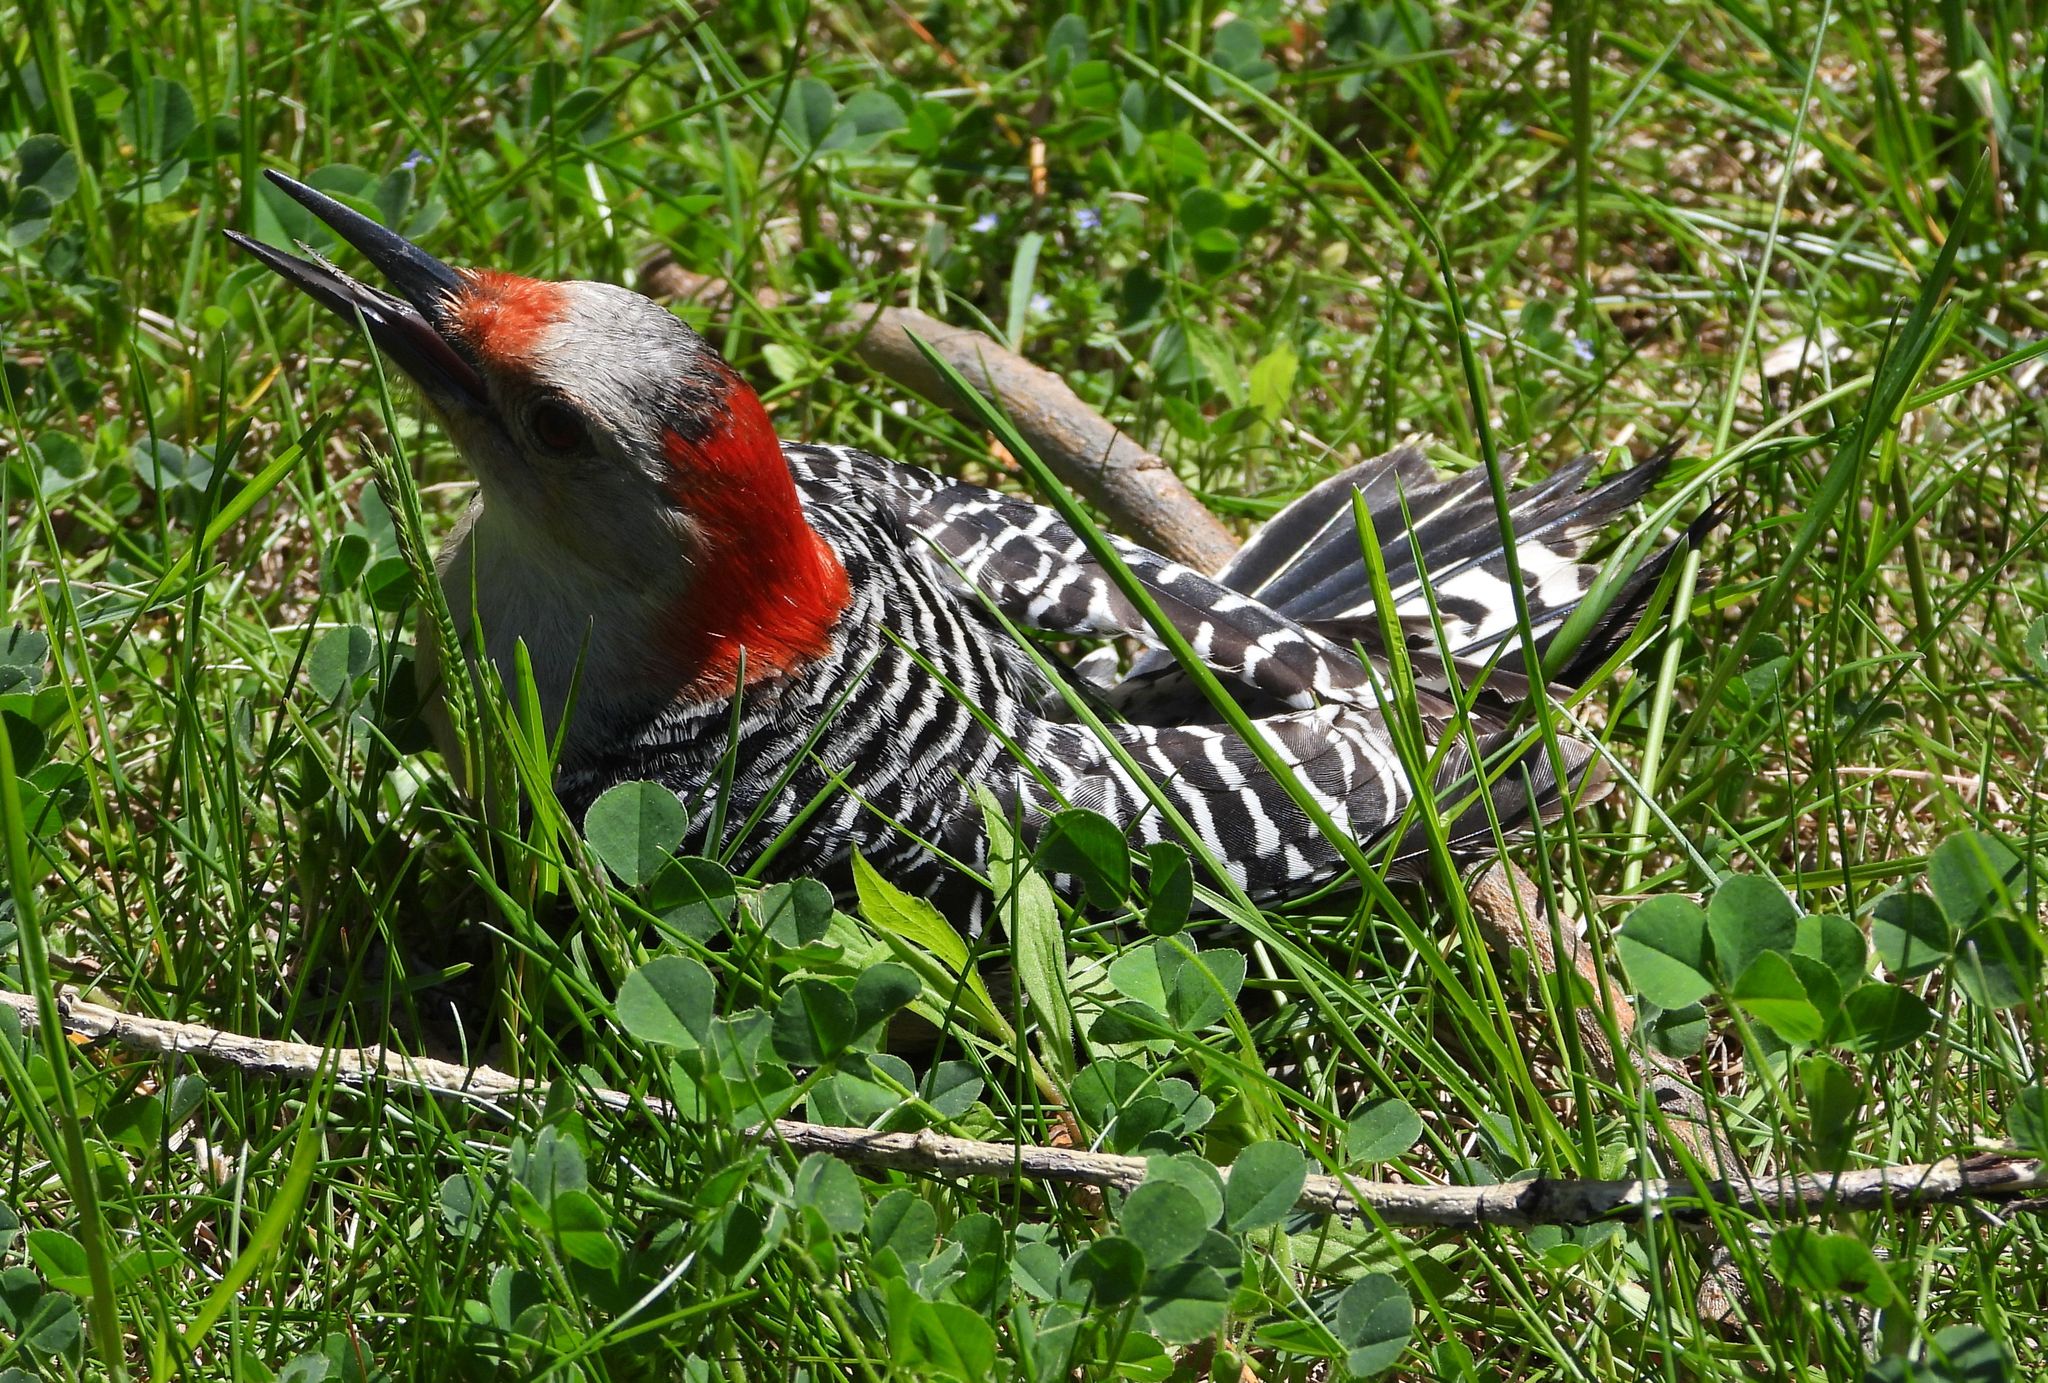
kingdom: Animalia
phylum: Chordata
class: Aves
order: Piciformes
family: Picidae
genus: Melanerpes
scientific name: Melanerpes carolinus
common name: Red-bellied woodpecker
